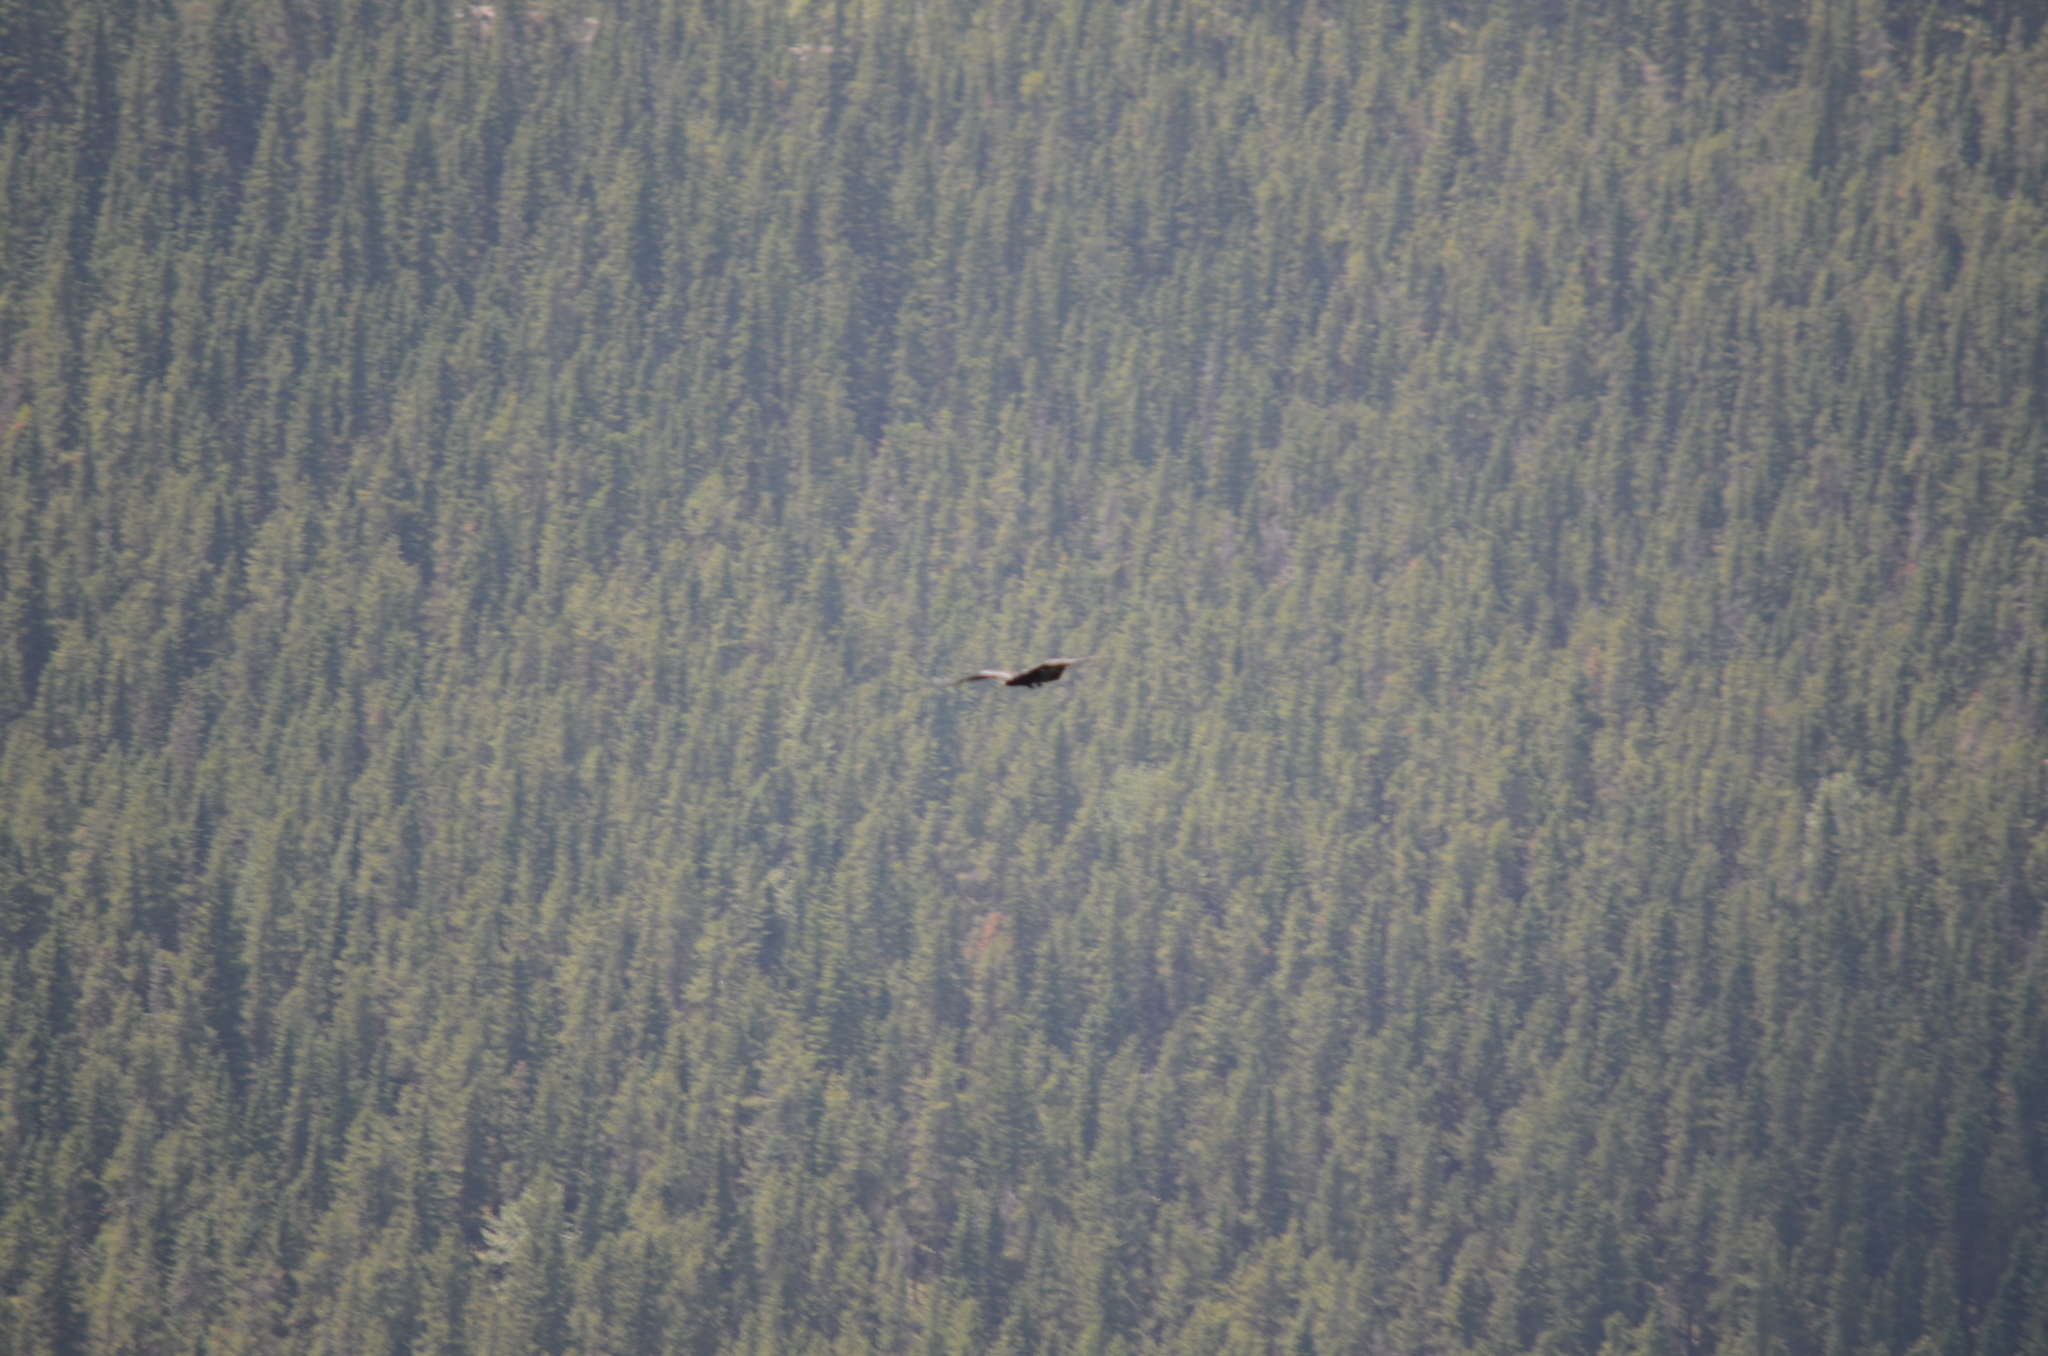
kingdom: Animalia
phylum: Chordata
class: Aves
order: Passeriformes
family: Corvidae
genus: Corvus
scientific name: Corvus corax
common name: Common raven
